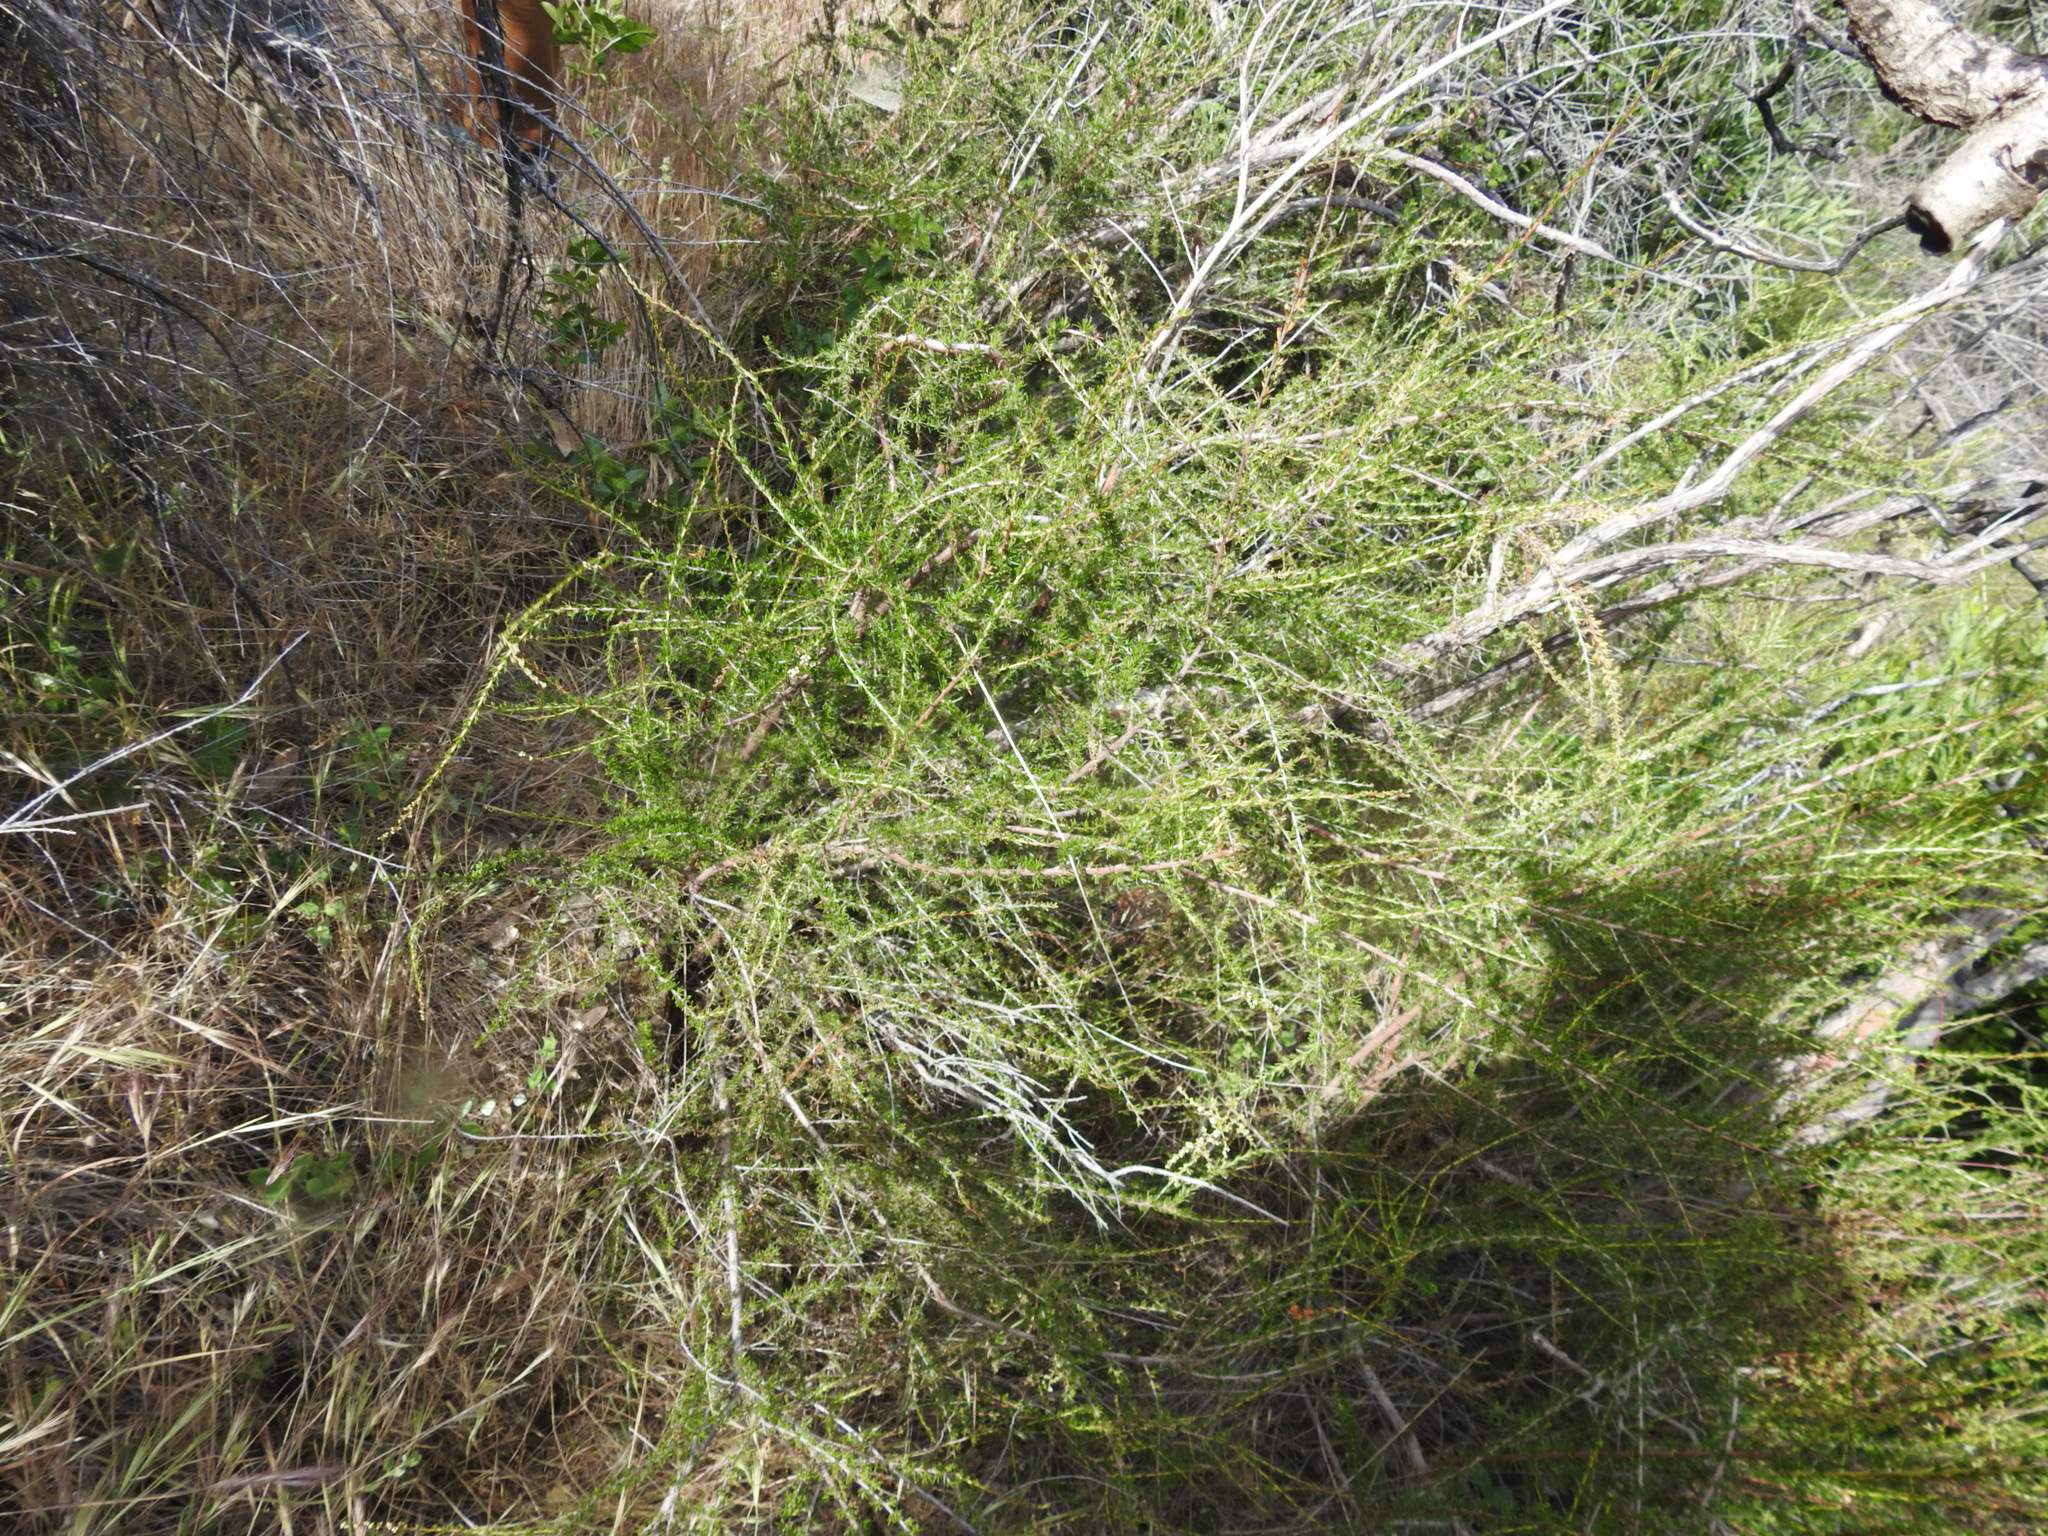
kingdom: Plantae
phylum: Tracheophyta
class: Magnoliopsida
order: Rosales
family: Rosaceae
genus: Adenostoma
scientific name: Adenostoma fasciculatum
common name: Chamise
